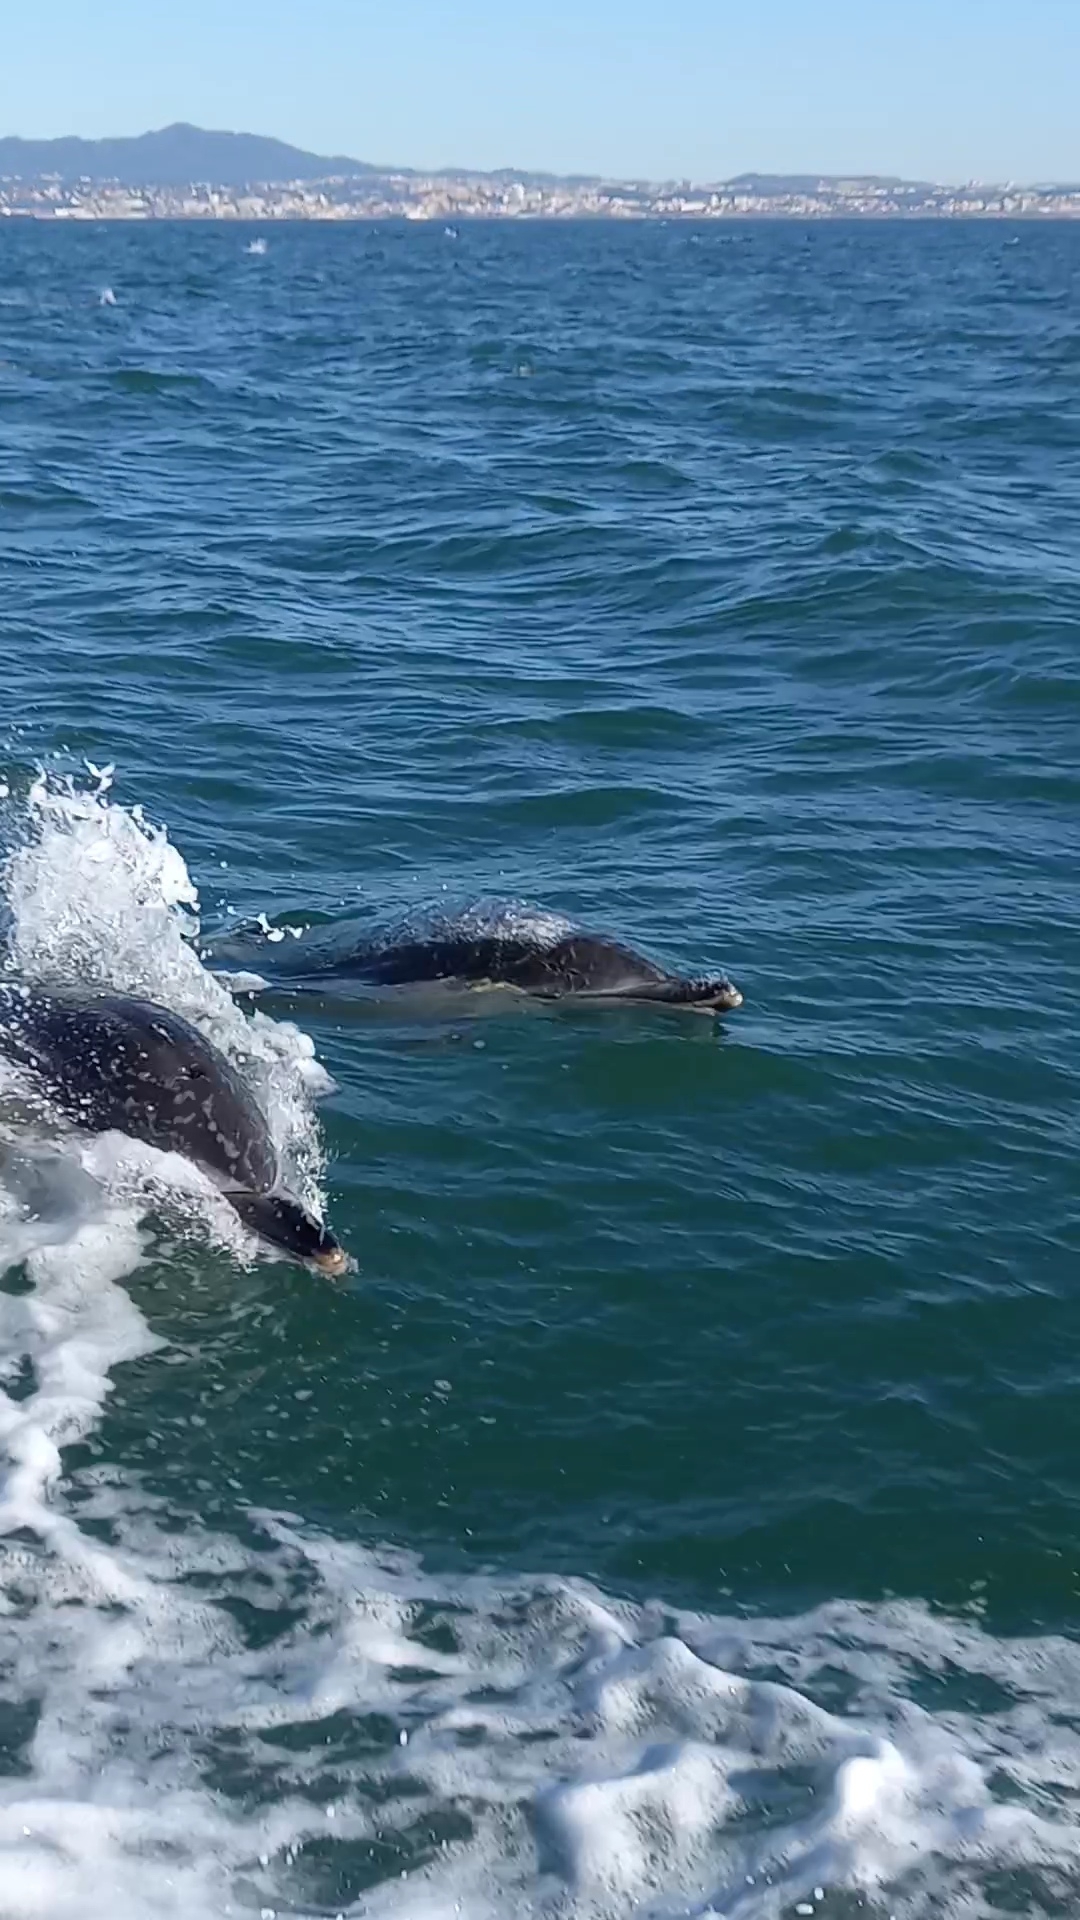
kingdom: Animalia
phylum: Chordata
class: Mammalia
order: Cetacea
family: Delphinidae
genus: Delphinus
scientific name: Delphinus delphis
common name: Common dolphin
